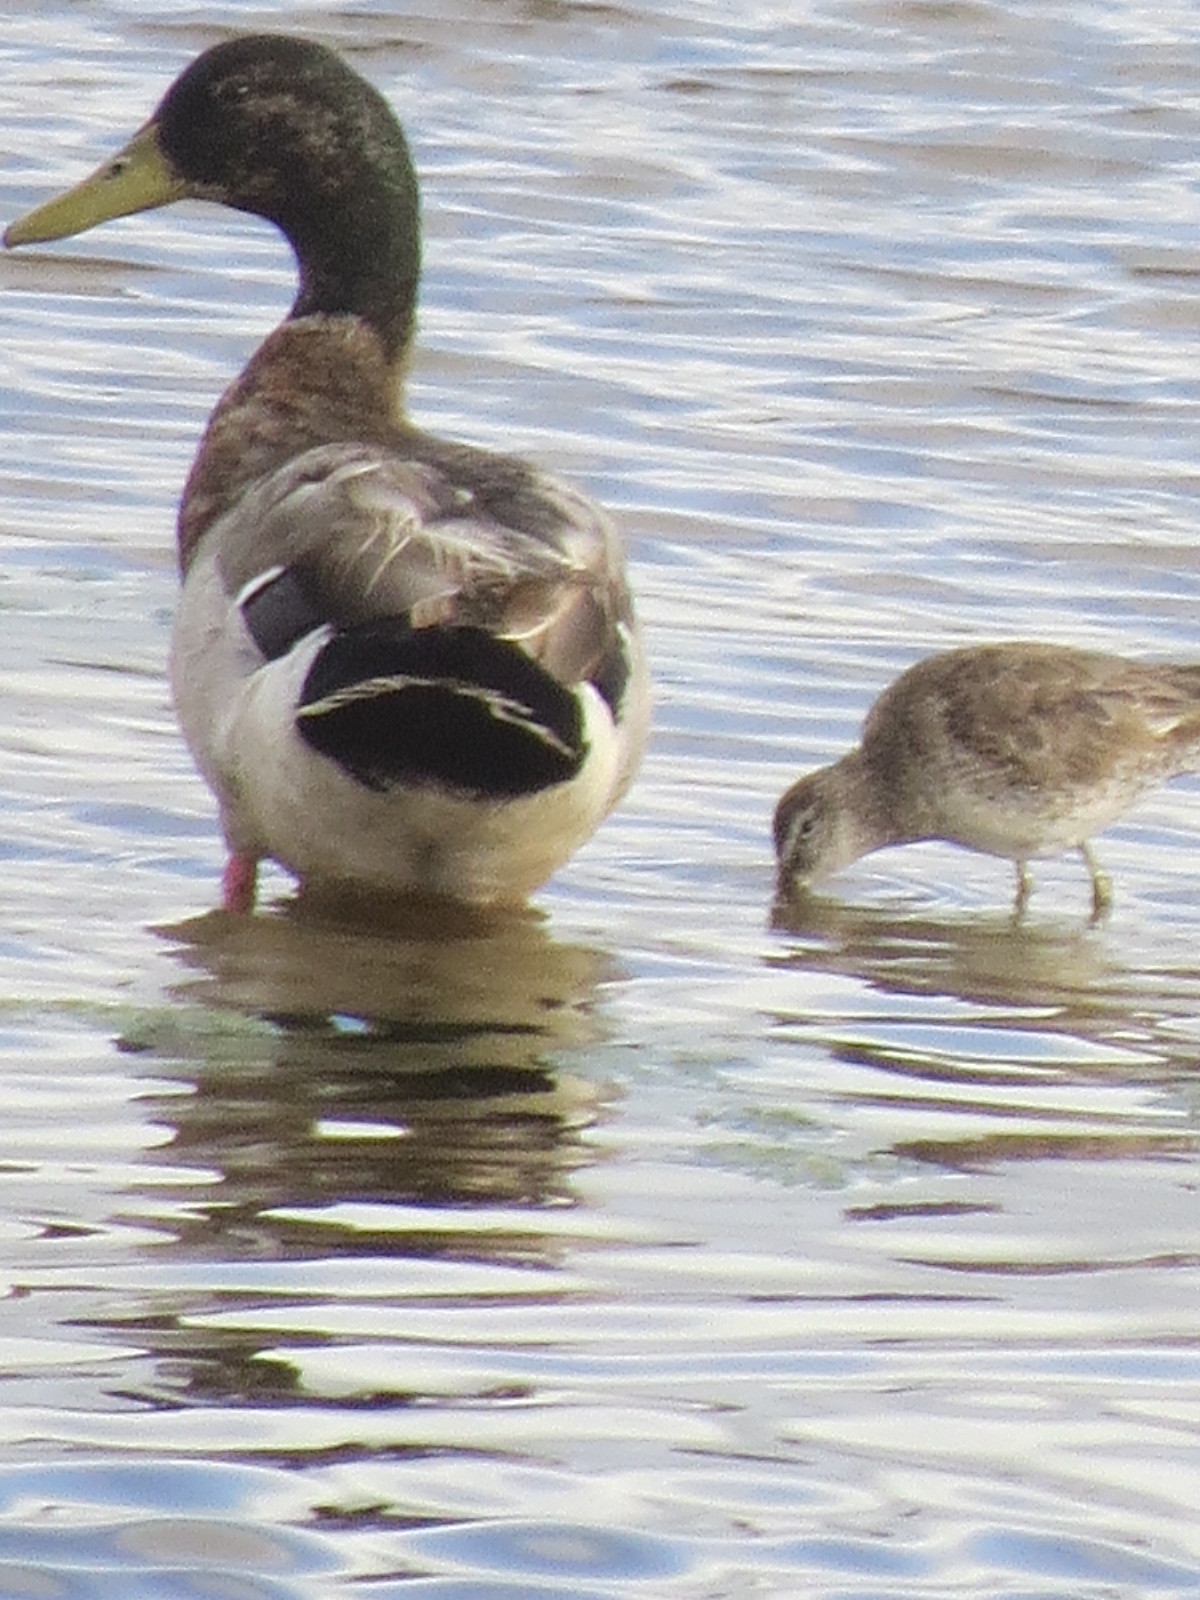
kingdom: Animalia
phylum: Chordata
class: Aves
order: Anseriformes
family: Anatidae
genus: Anas
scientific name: Anas platyrhynchos
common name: Mallard
